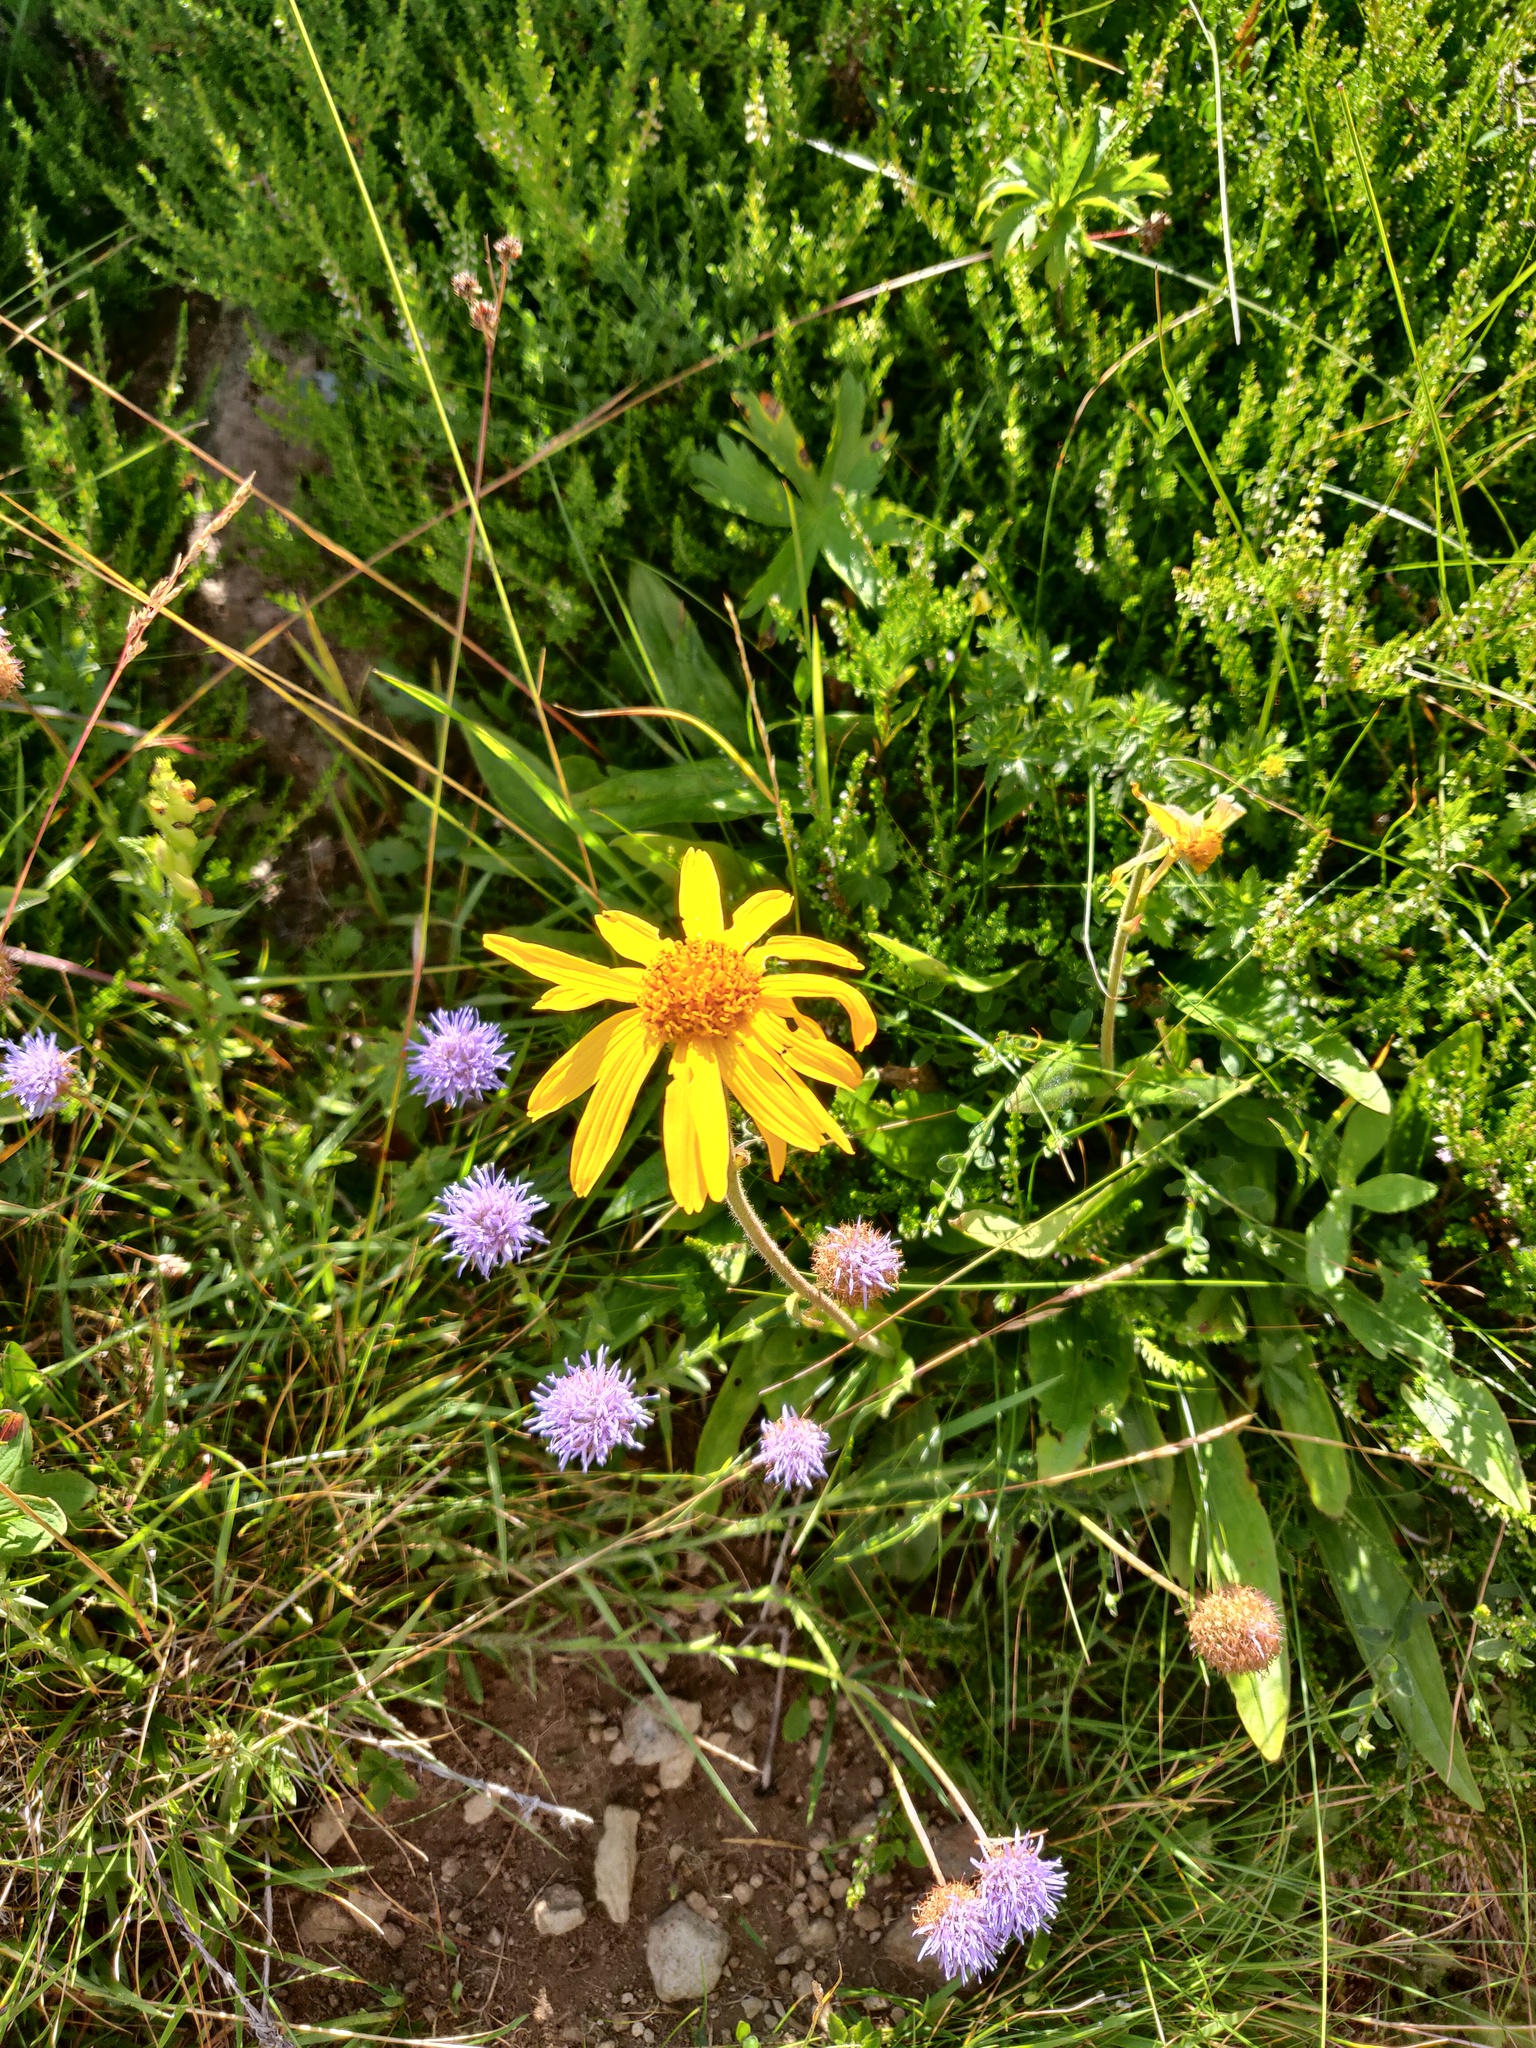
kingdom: Plantae
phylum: Tracheophyta
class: Magnoliopsida
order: Asterales
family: Asteraceae
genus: Arnica
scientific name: Arnica montana
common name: Leopard's bane
